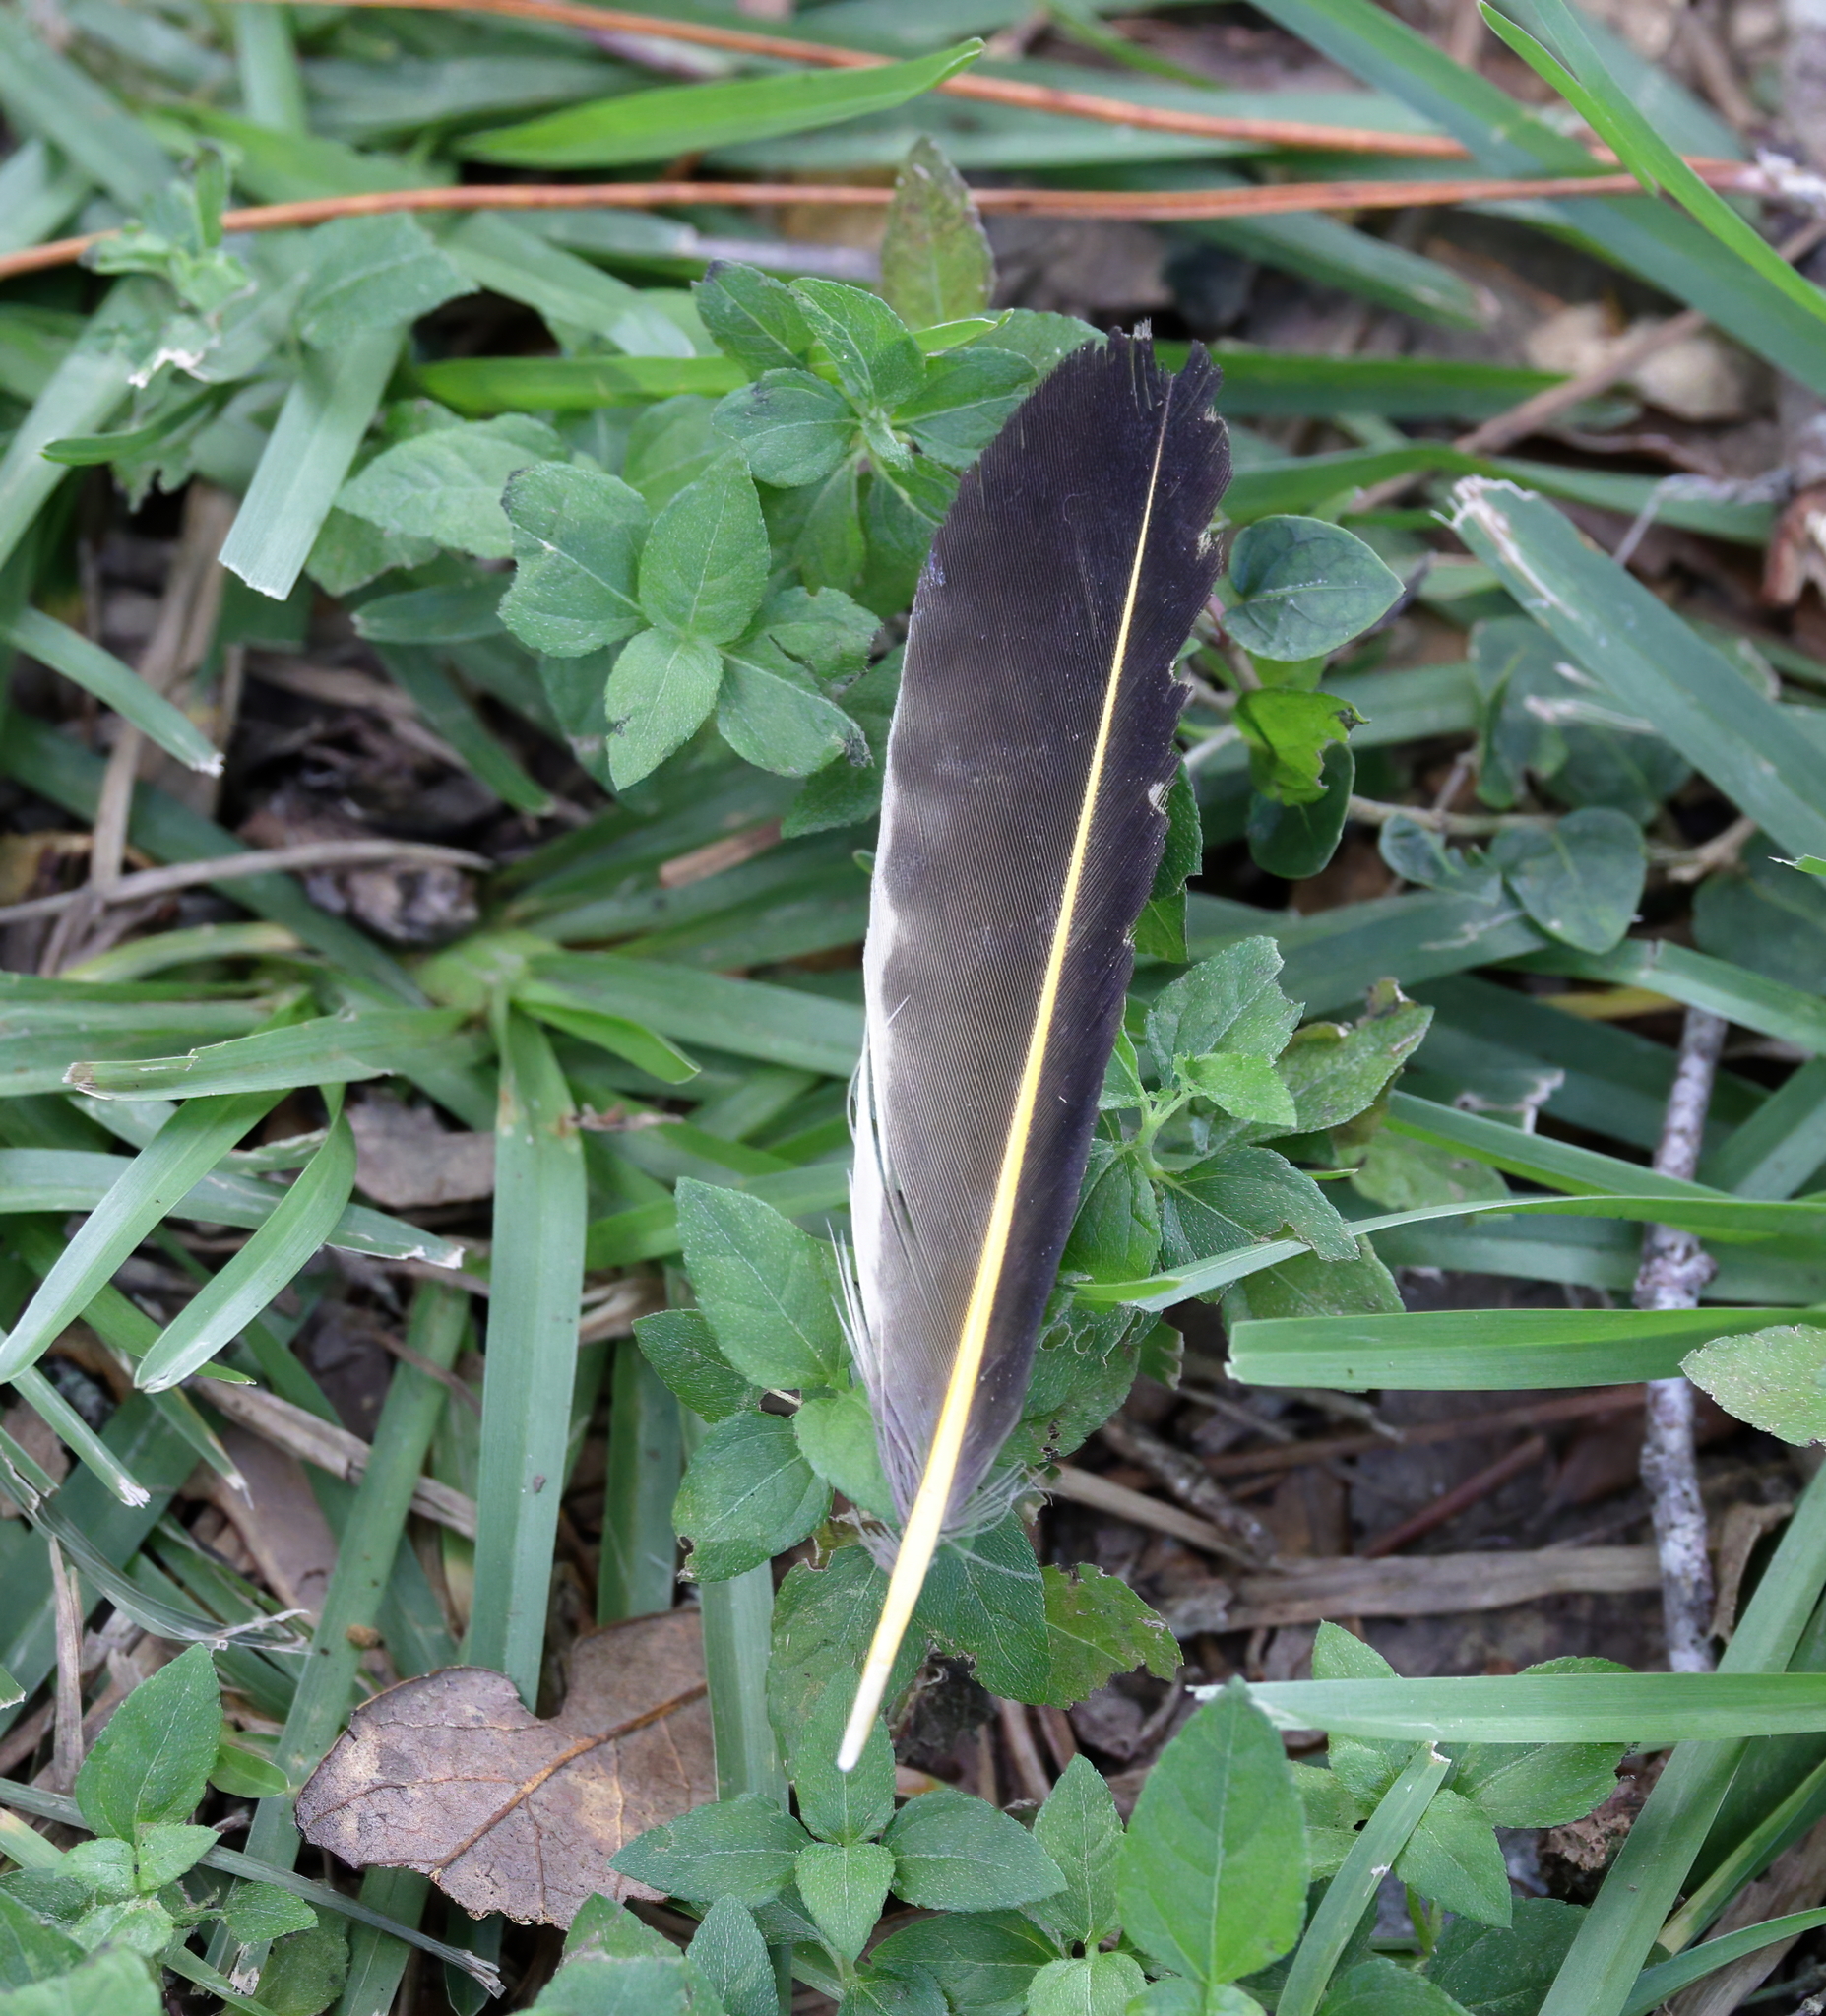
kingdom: Animalia
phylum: Chordata
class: Aves
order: Piciformes
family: Picidae
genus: Colaptes
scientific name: Colaptes auratus
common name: Northern flicker
